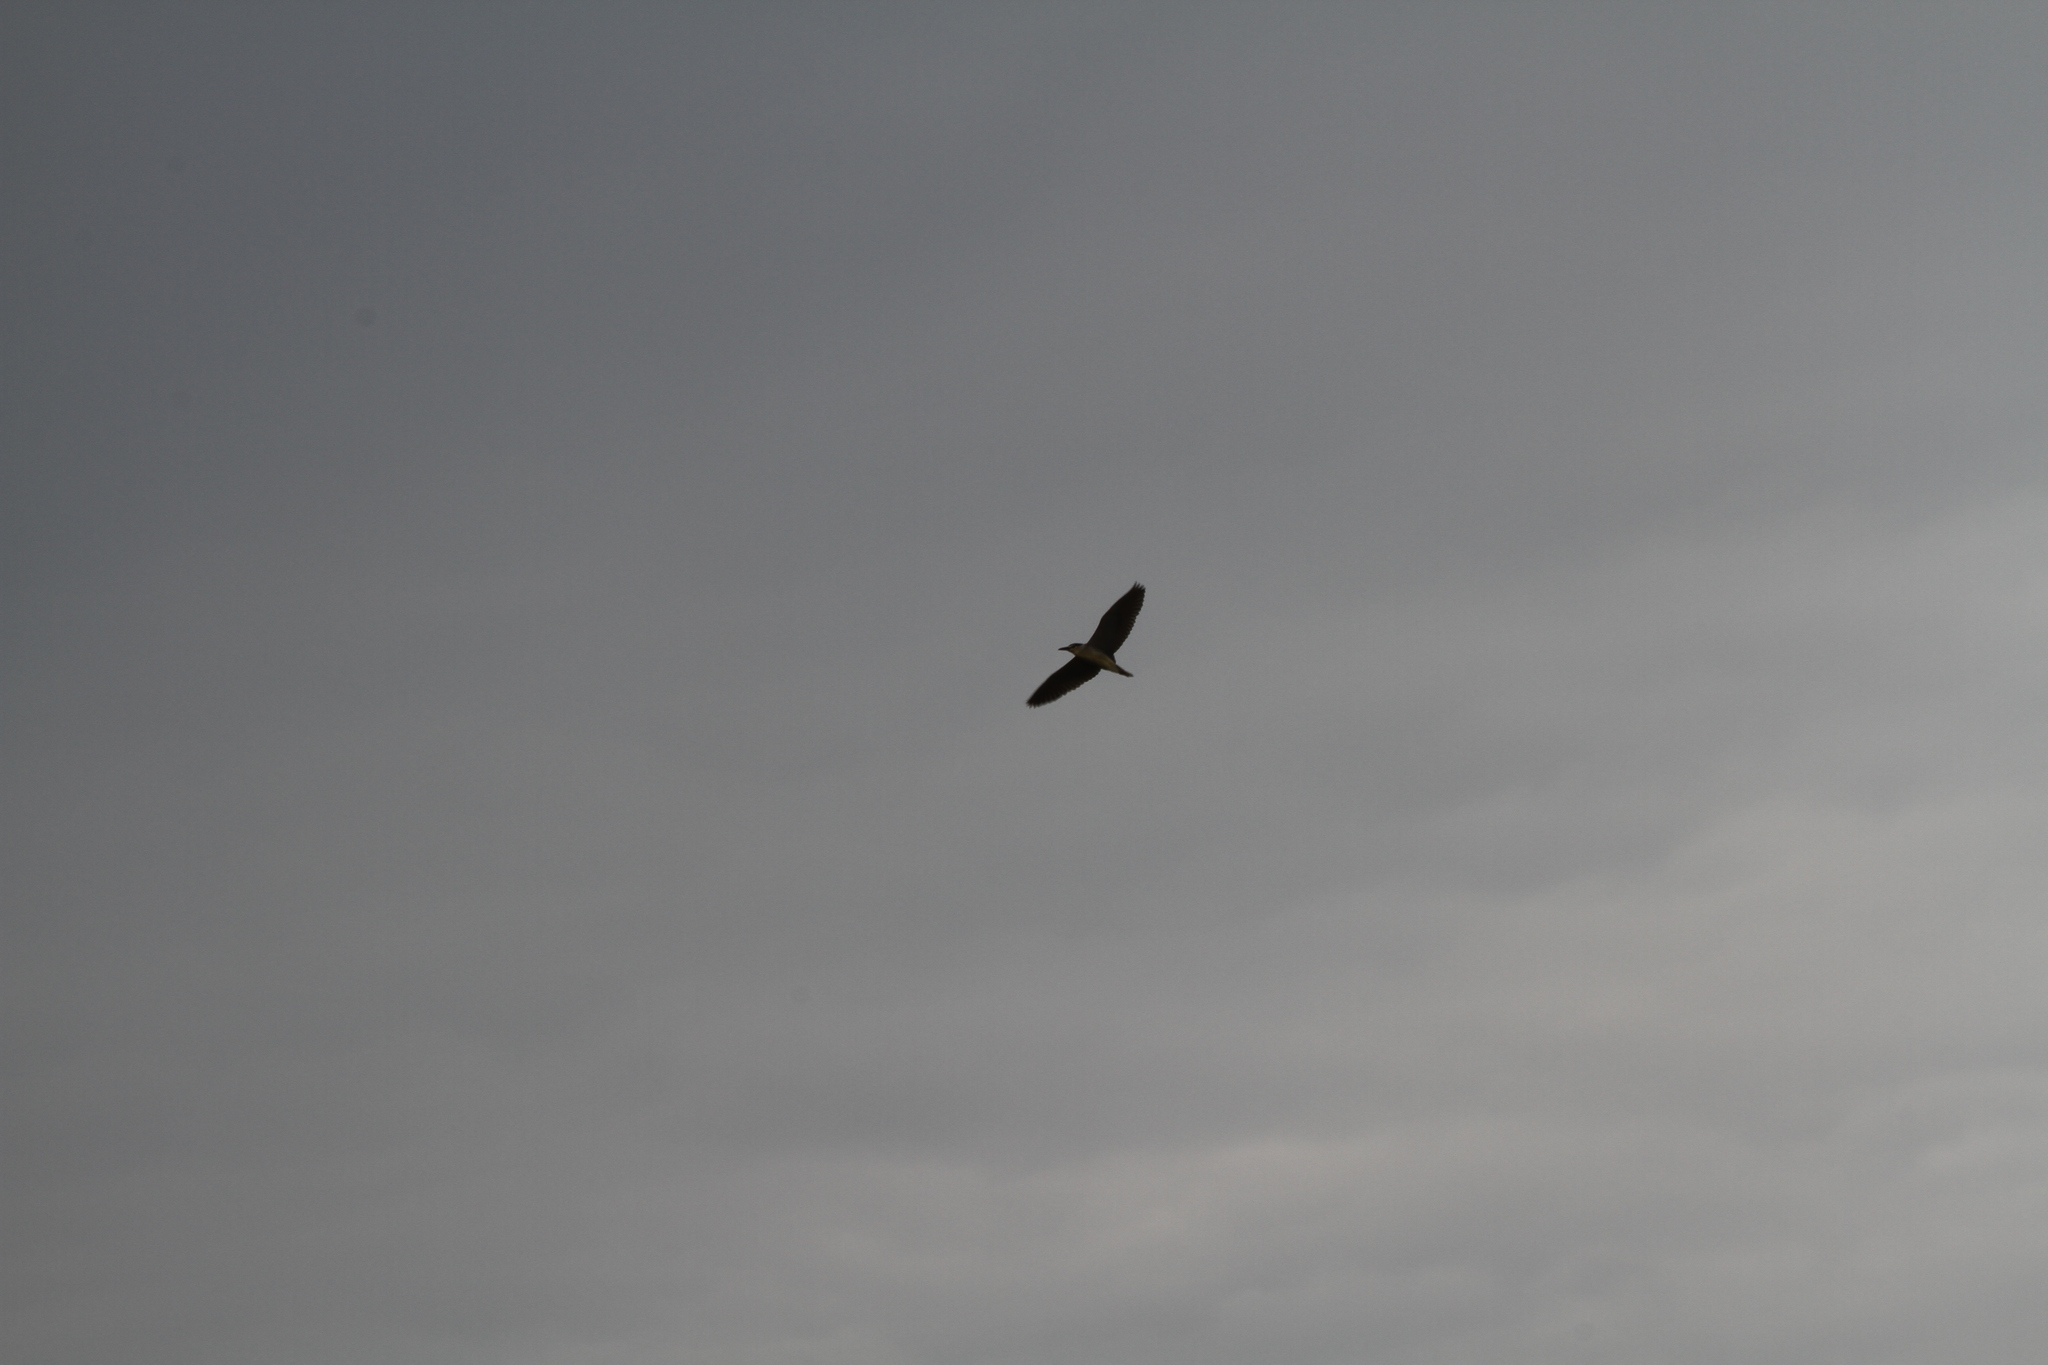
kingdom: Animalia
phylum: Chordata
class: Aves
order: Pelecaniformes
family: Ardeidae
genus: Nycticorax
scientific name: Nycticorax nycticorax
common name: Black-crowned night heron
